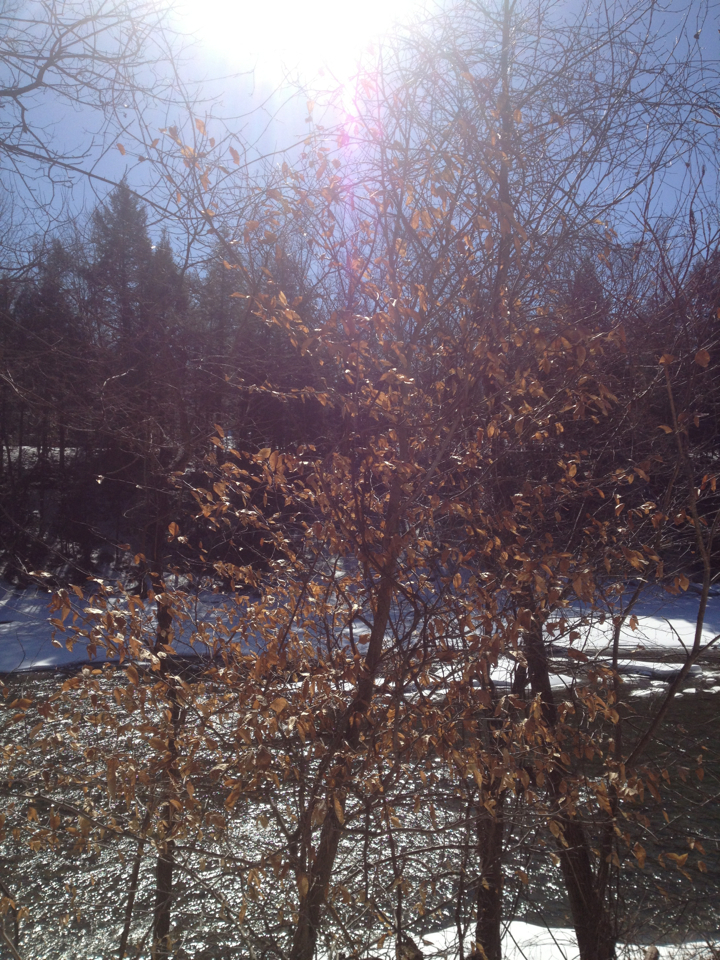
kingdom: Plantae
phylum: Tracheophyta
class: Magnoliopsida
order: Fagales
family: Fagaceae
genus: Fagus
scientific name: Fagus grandifolia
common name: American beech
